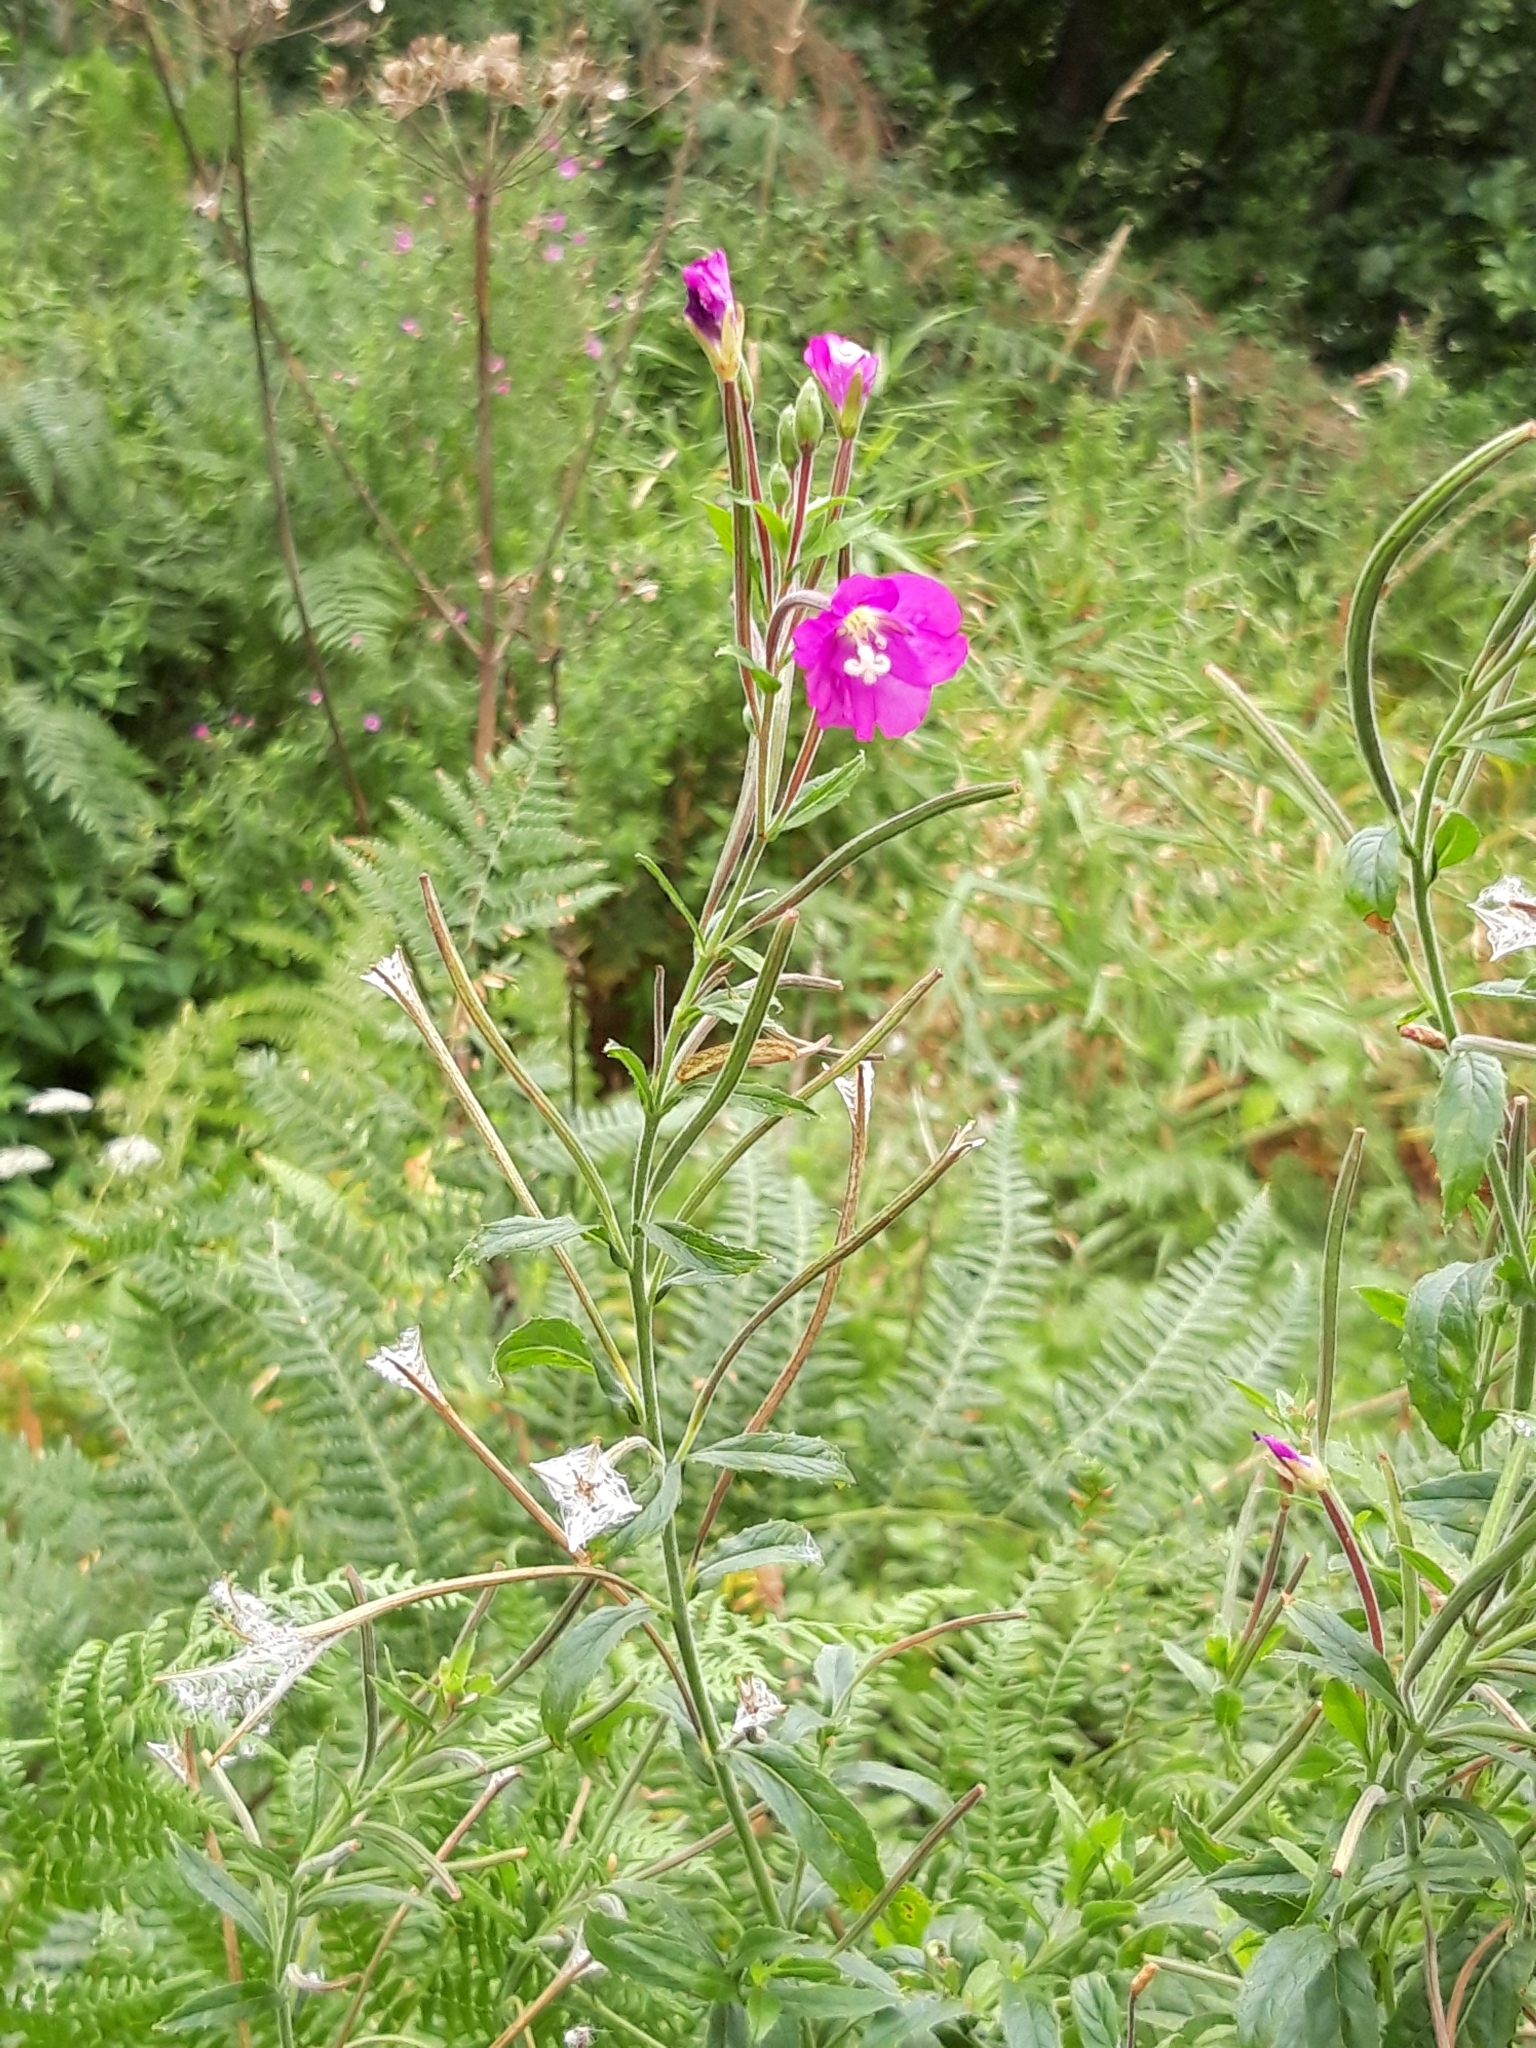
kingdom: Plantae
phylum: Tracheophyta
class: Magnoliopsida
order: Myrtales
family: Onagraceae
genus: Epilobium
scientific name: Epilobium hirsutum
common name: Great willowherb
